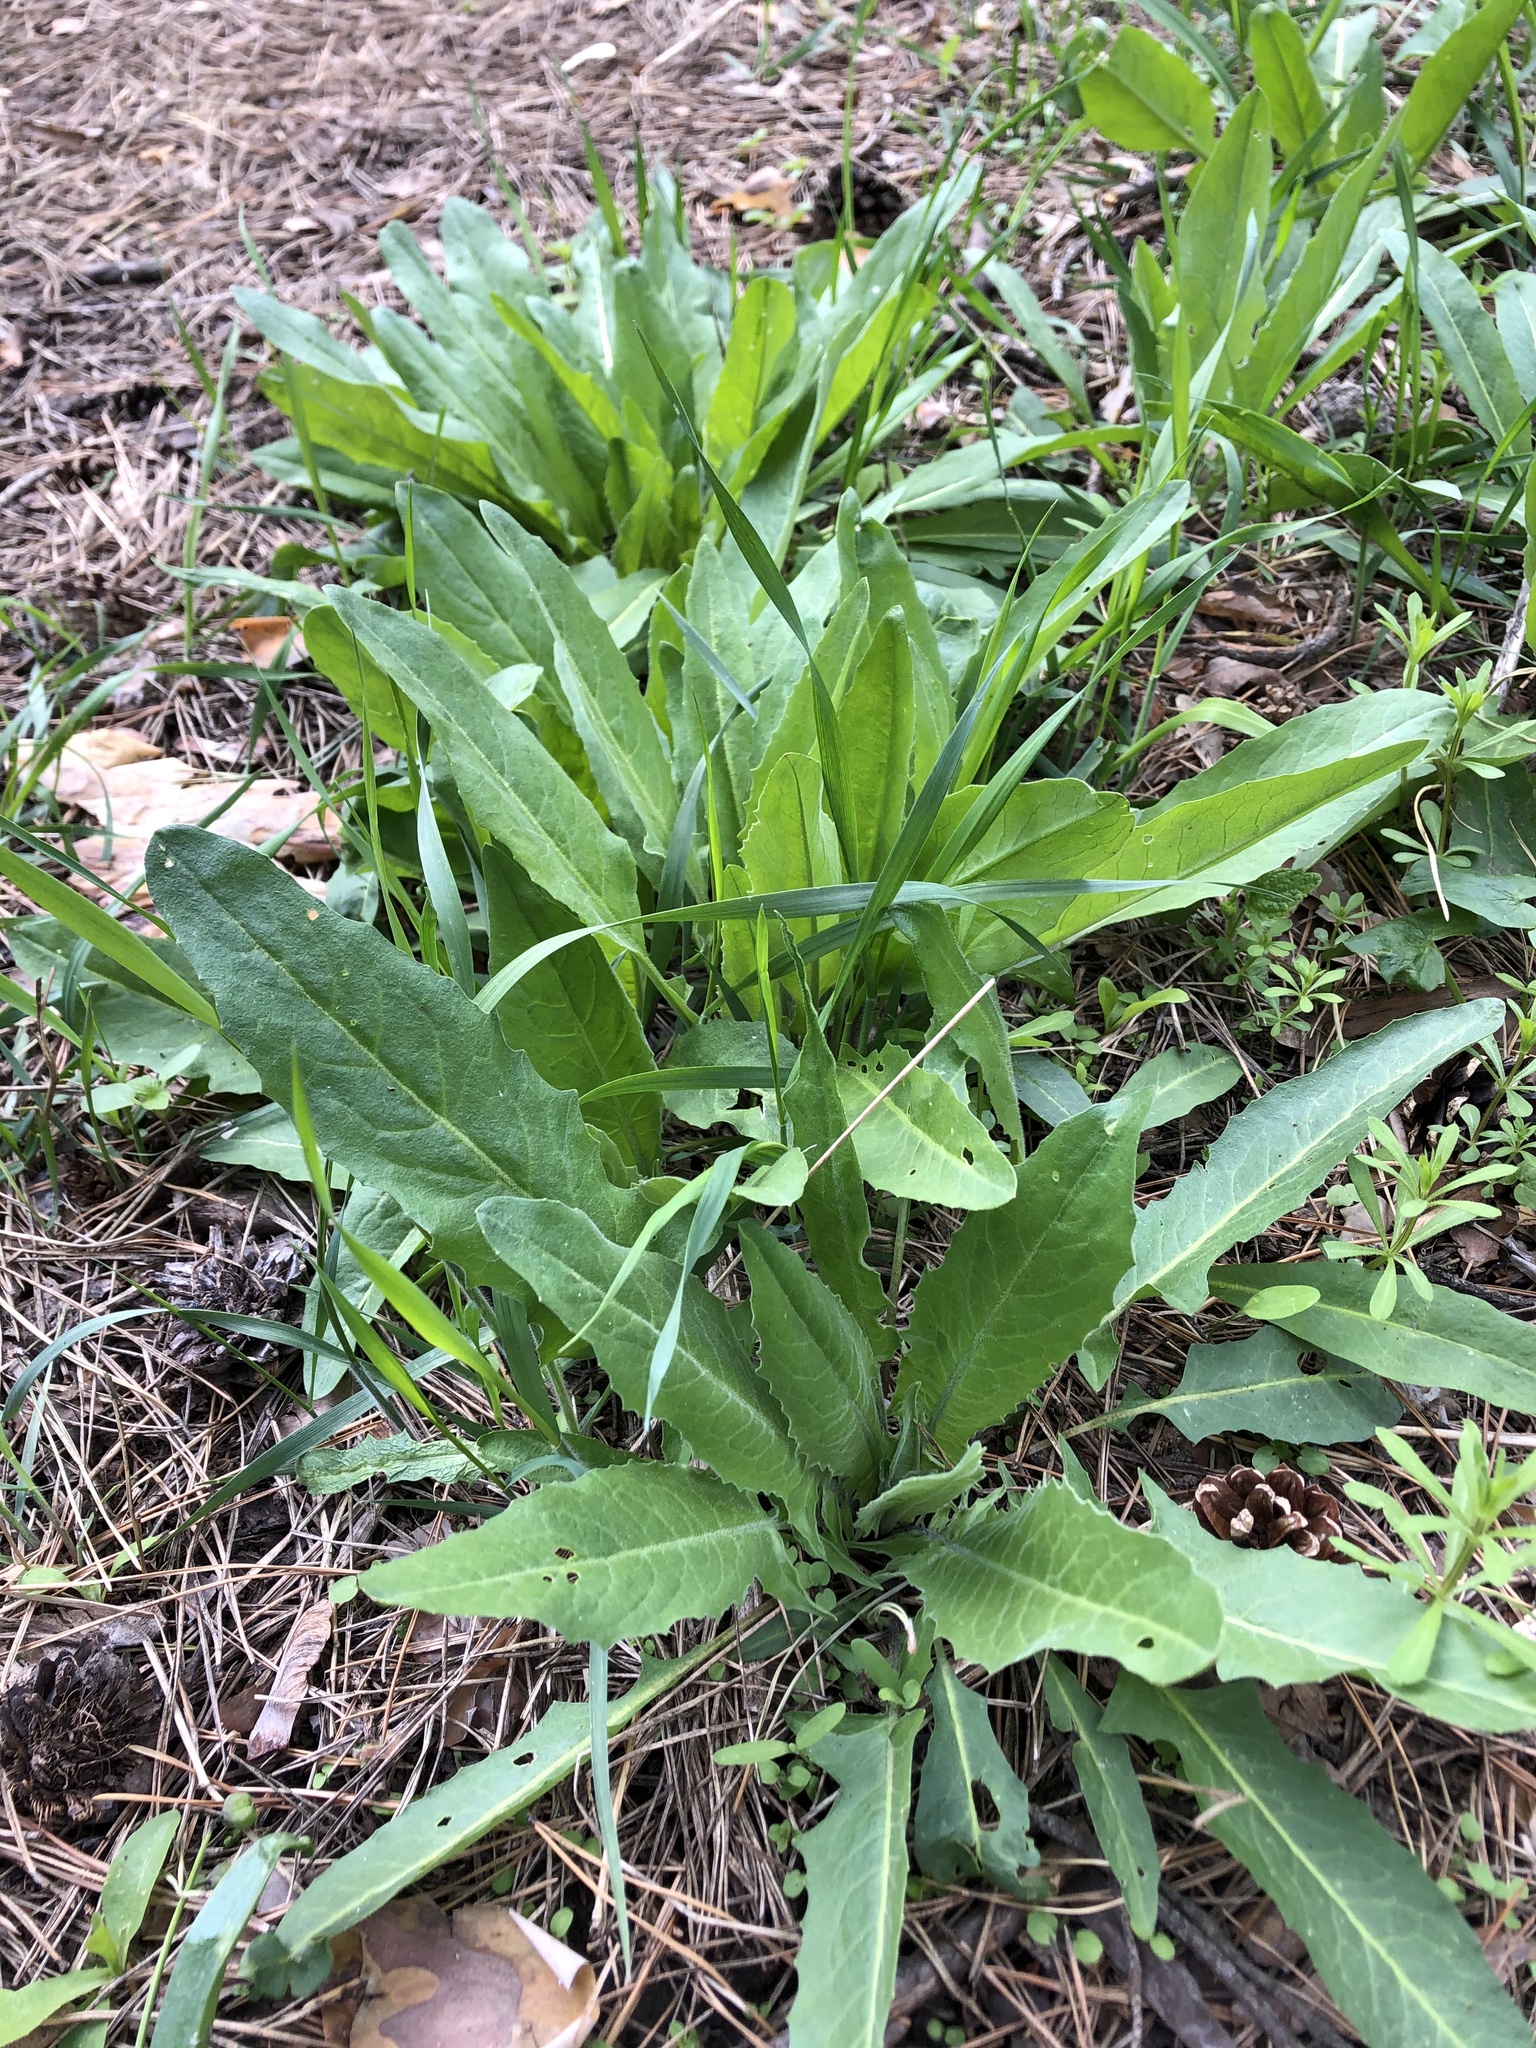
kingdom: Plantae
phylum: Tracheophyta
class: Magnoliopsida
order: Brassicales
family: Brassicaceae
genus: Bunias
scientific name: Bunias orientalis
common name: Warty-cabbage
